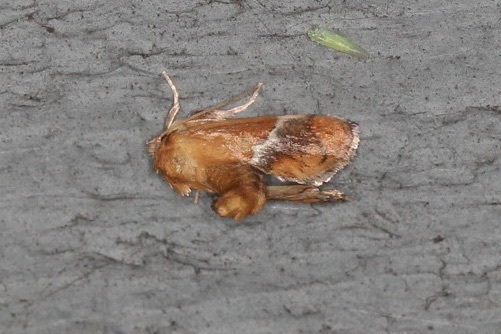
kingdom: Animalia
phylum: Arthropoda
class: Insecta
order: Lepidoptera
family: Limacodidae
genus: Lithacodes
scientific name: Lithacodes fasciola
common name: Yellow-shouldered slug moth
